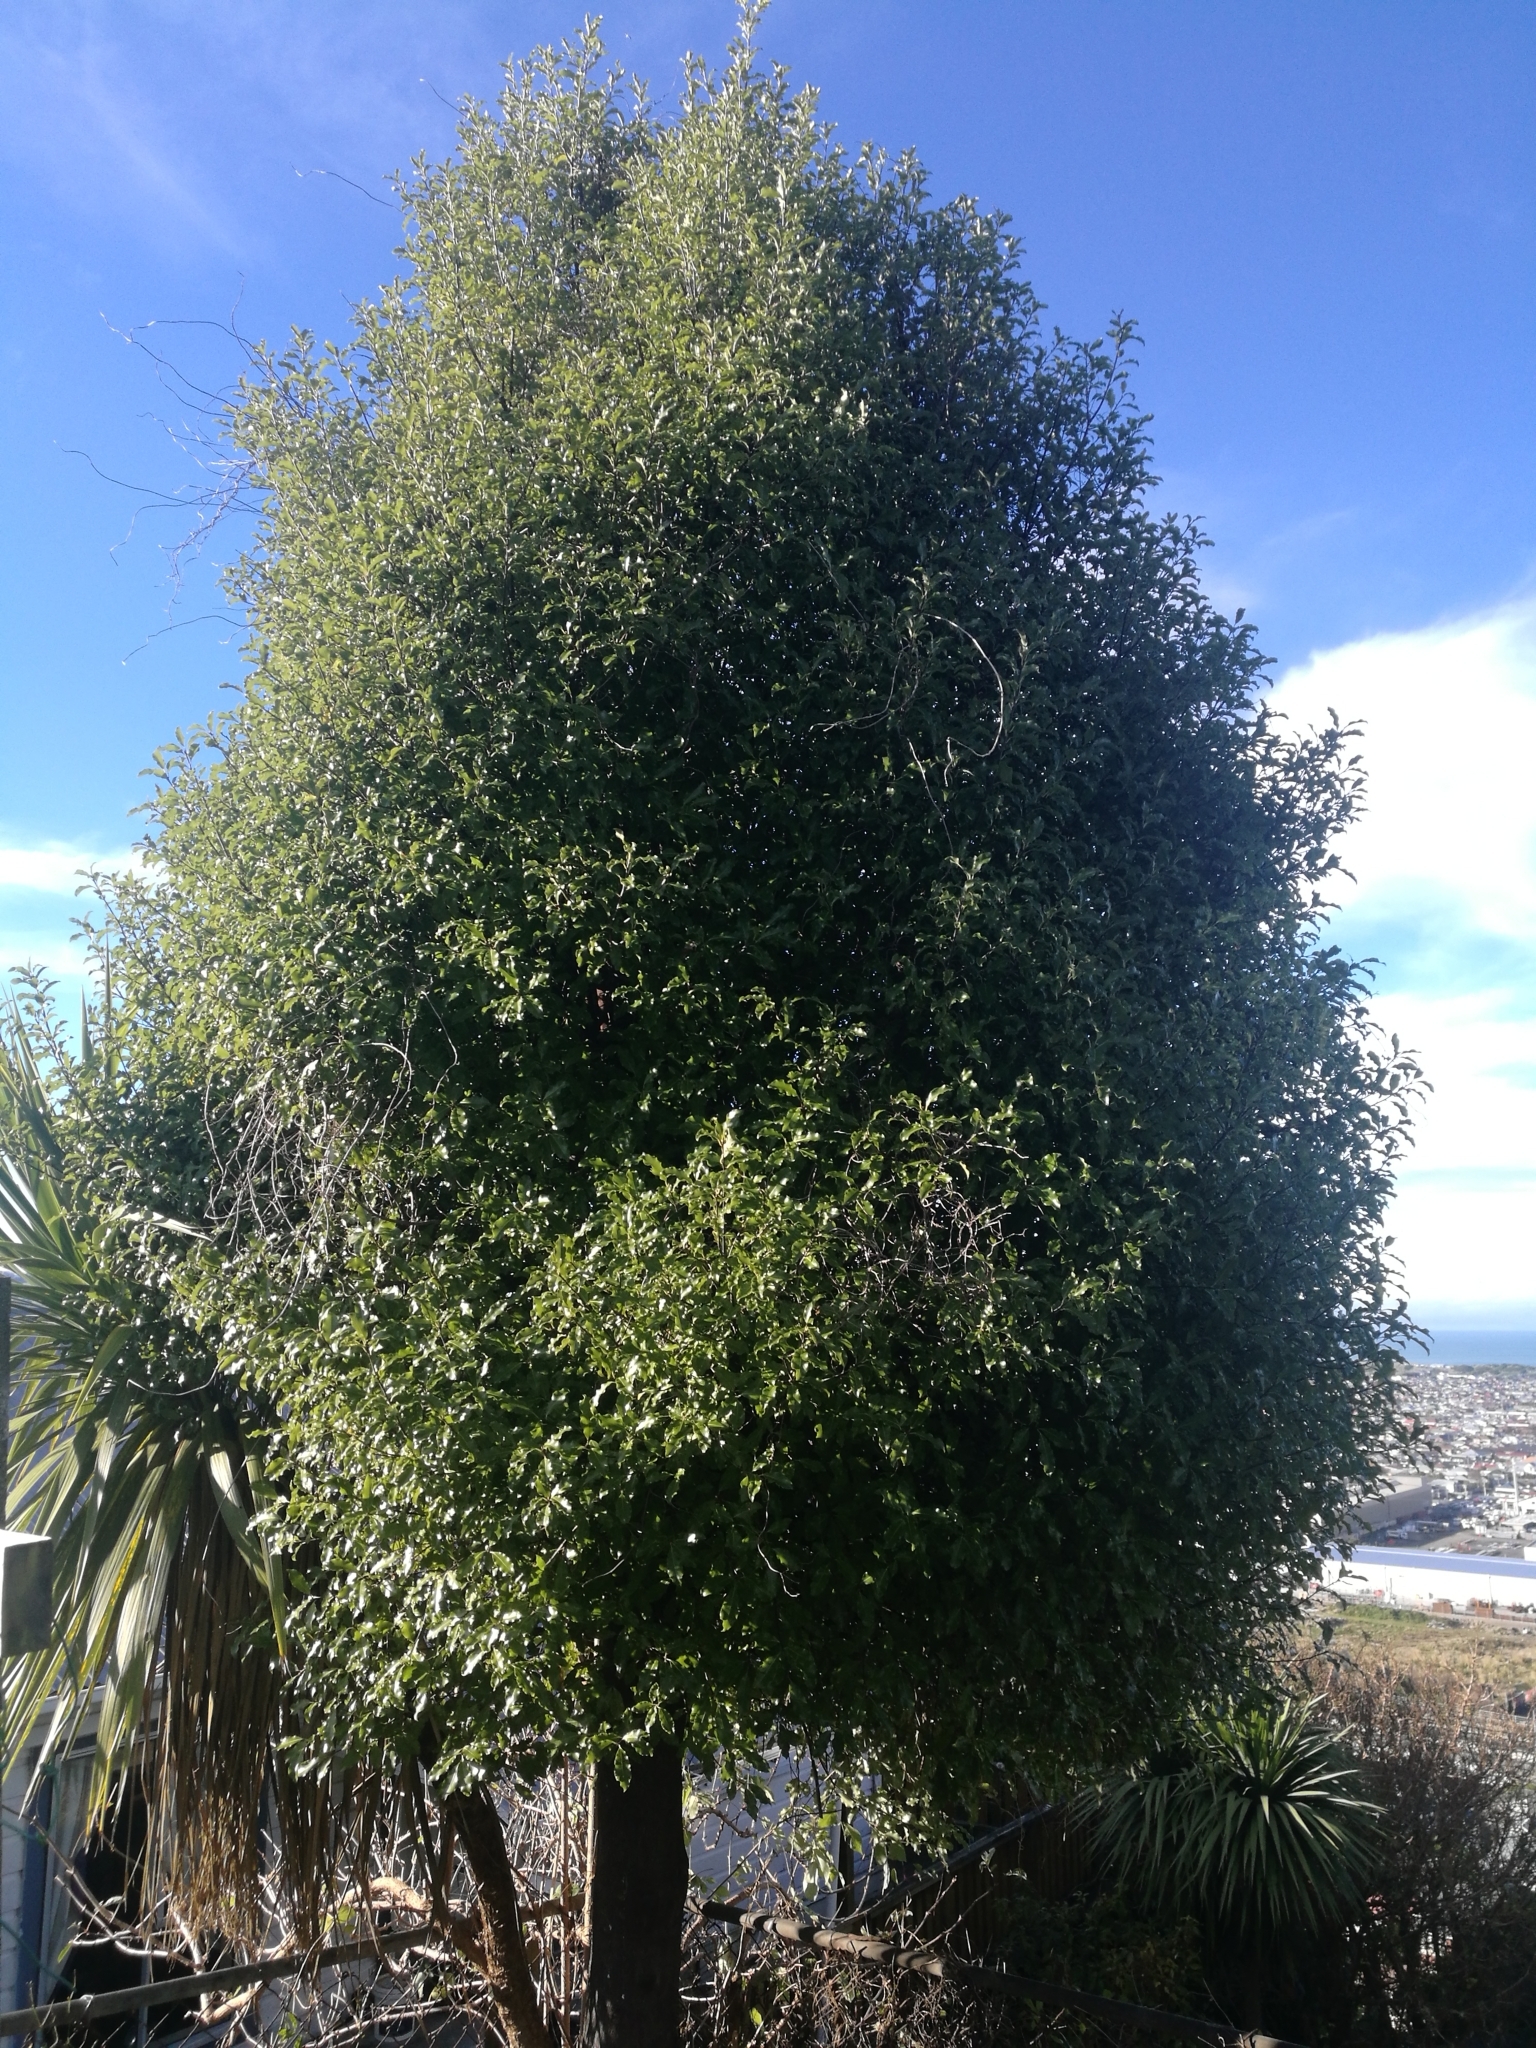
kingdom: Plantae
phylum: Tracheophyta
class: Magnoliopsida
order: Apiales
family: Pittosporaceae
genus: Pittosporum
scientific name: Pittosporum eugenioides
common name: Lemonwood
